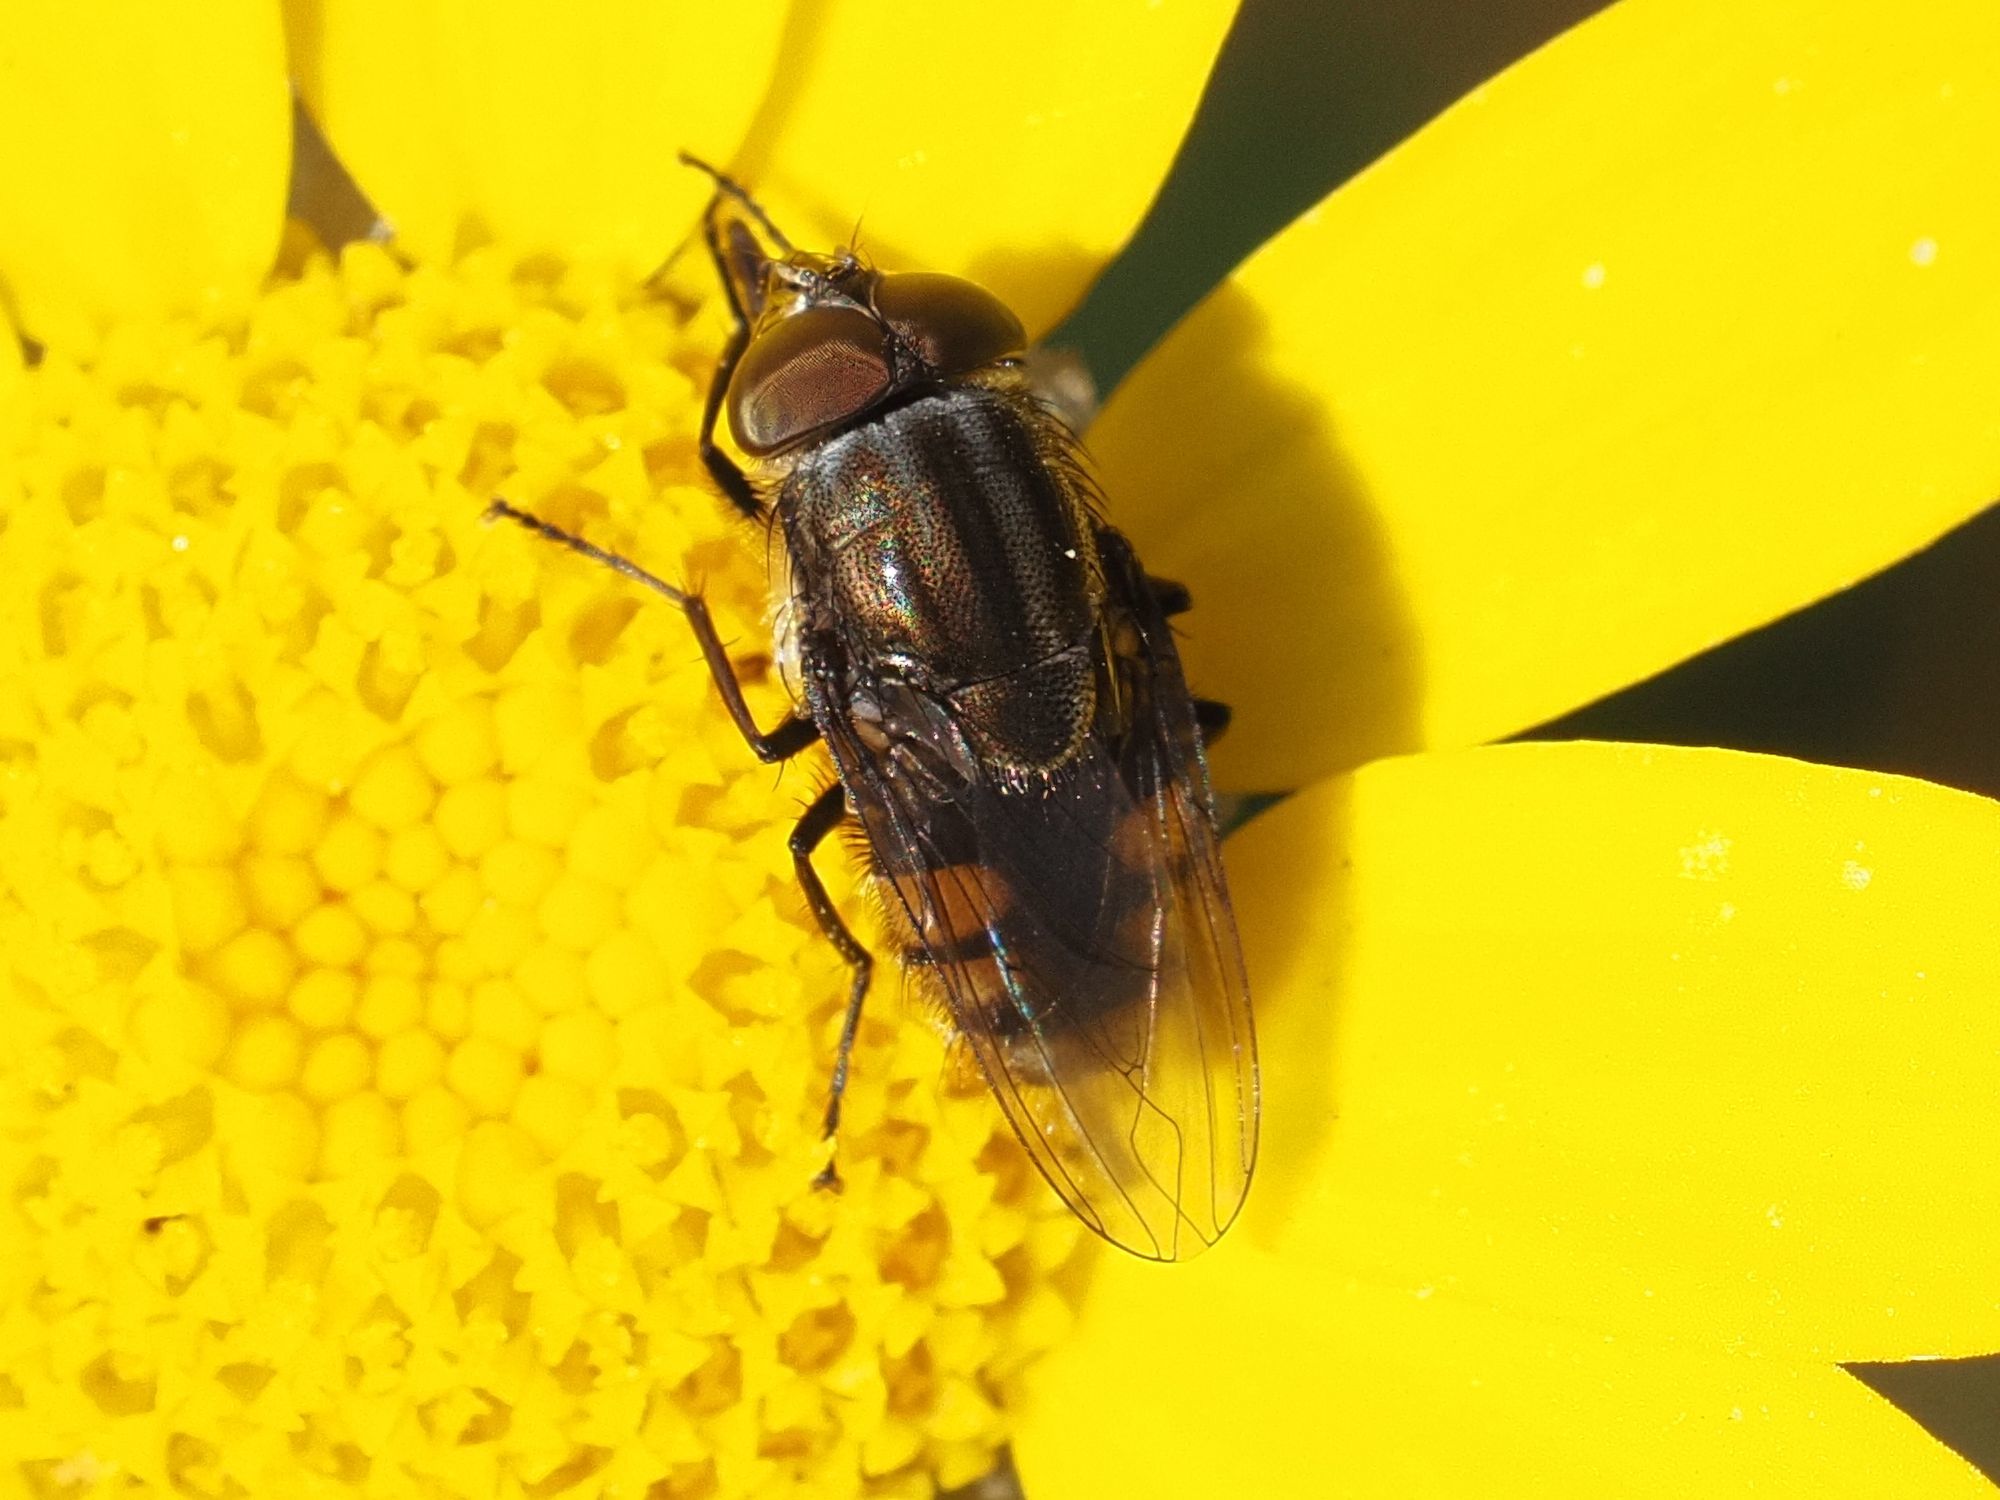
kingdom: Animalia
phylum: Arthropoda
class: Insecta
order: Diptera
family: Calliphoridae
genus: Stomorhina
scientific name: Stomorhina lunata
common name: Locust blowfly
